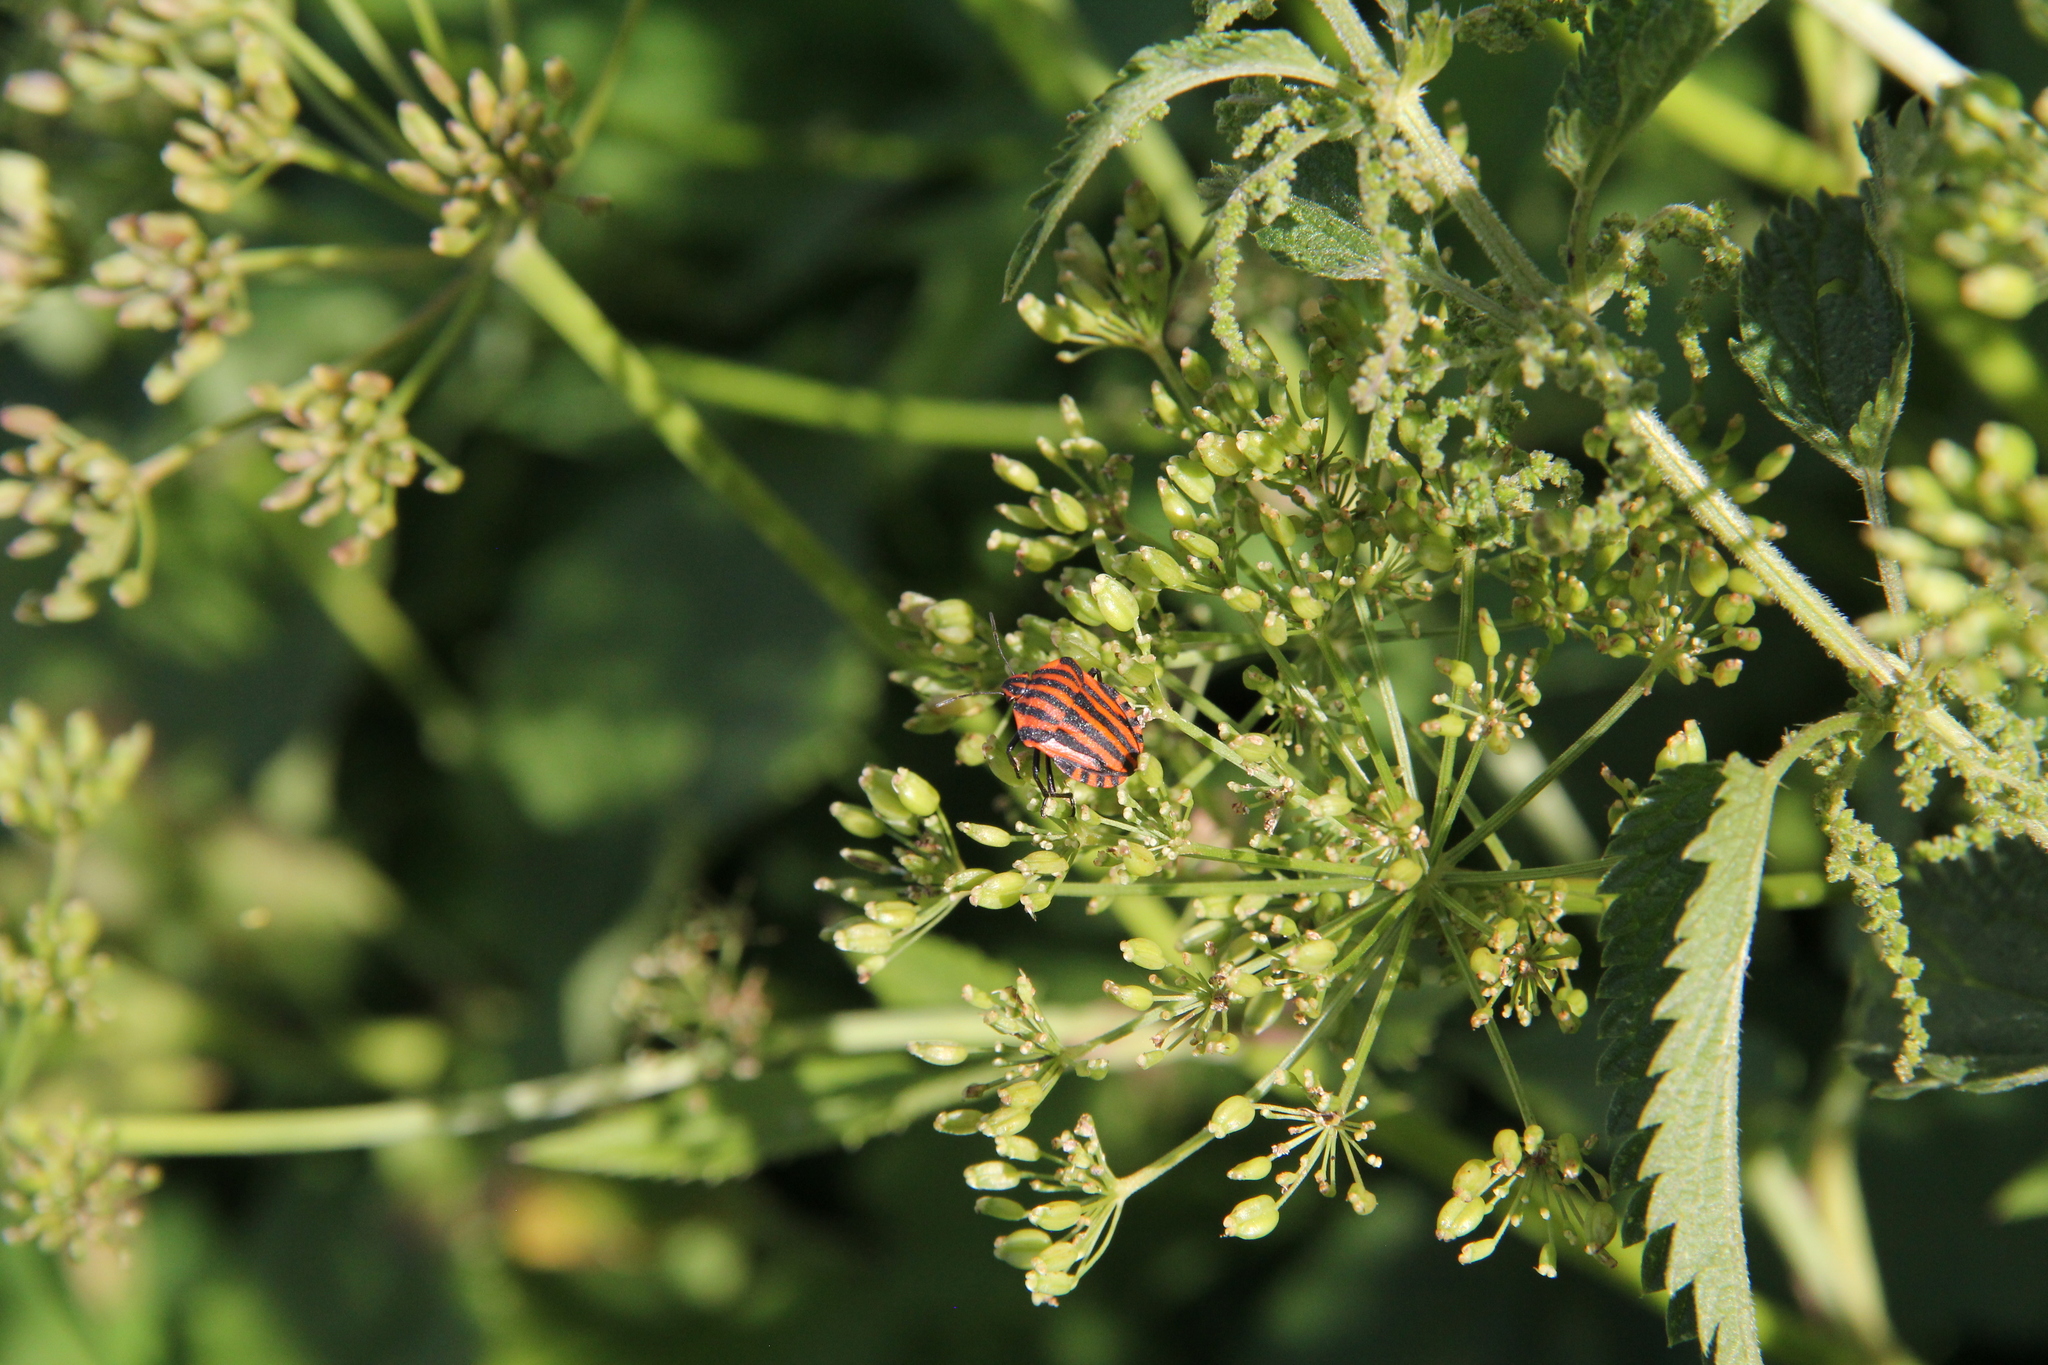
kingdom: Animalia
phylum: Arthropoda
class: Insecta
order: Hemiptera
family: Pentatomidae
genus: Graphosoma
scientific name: Graphosoma italicum
